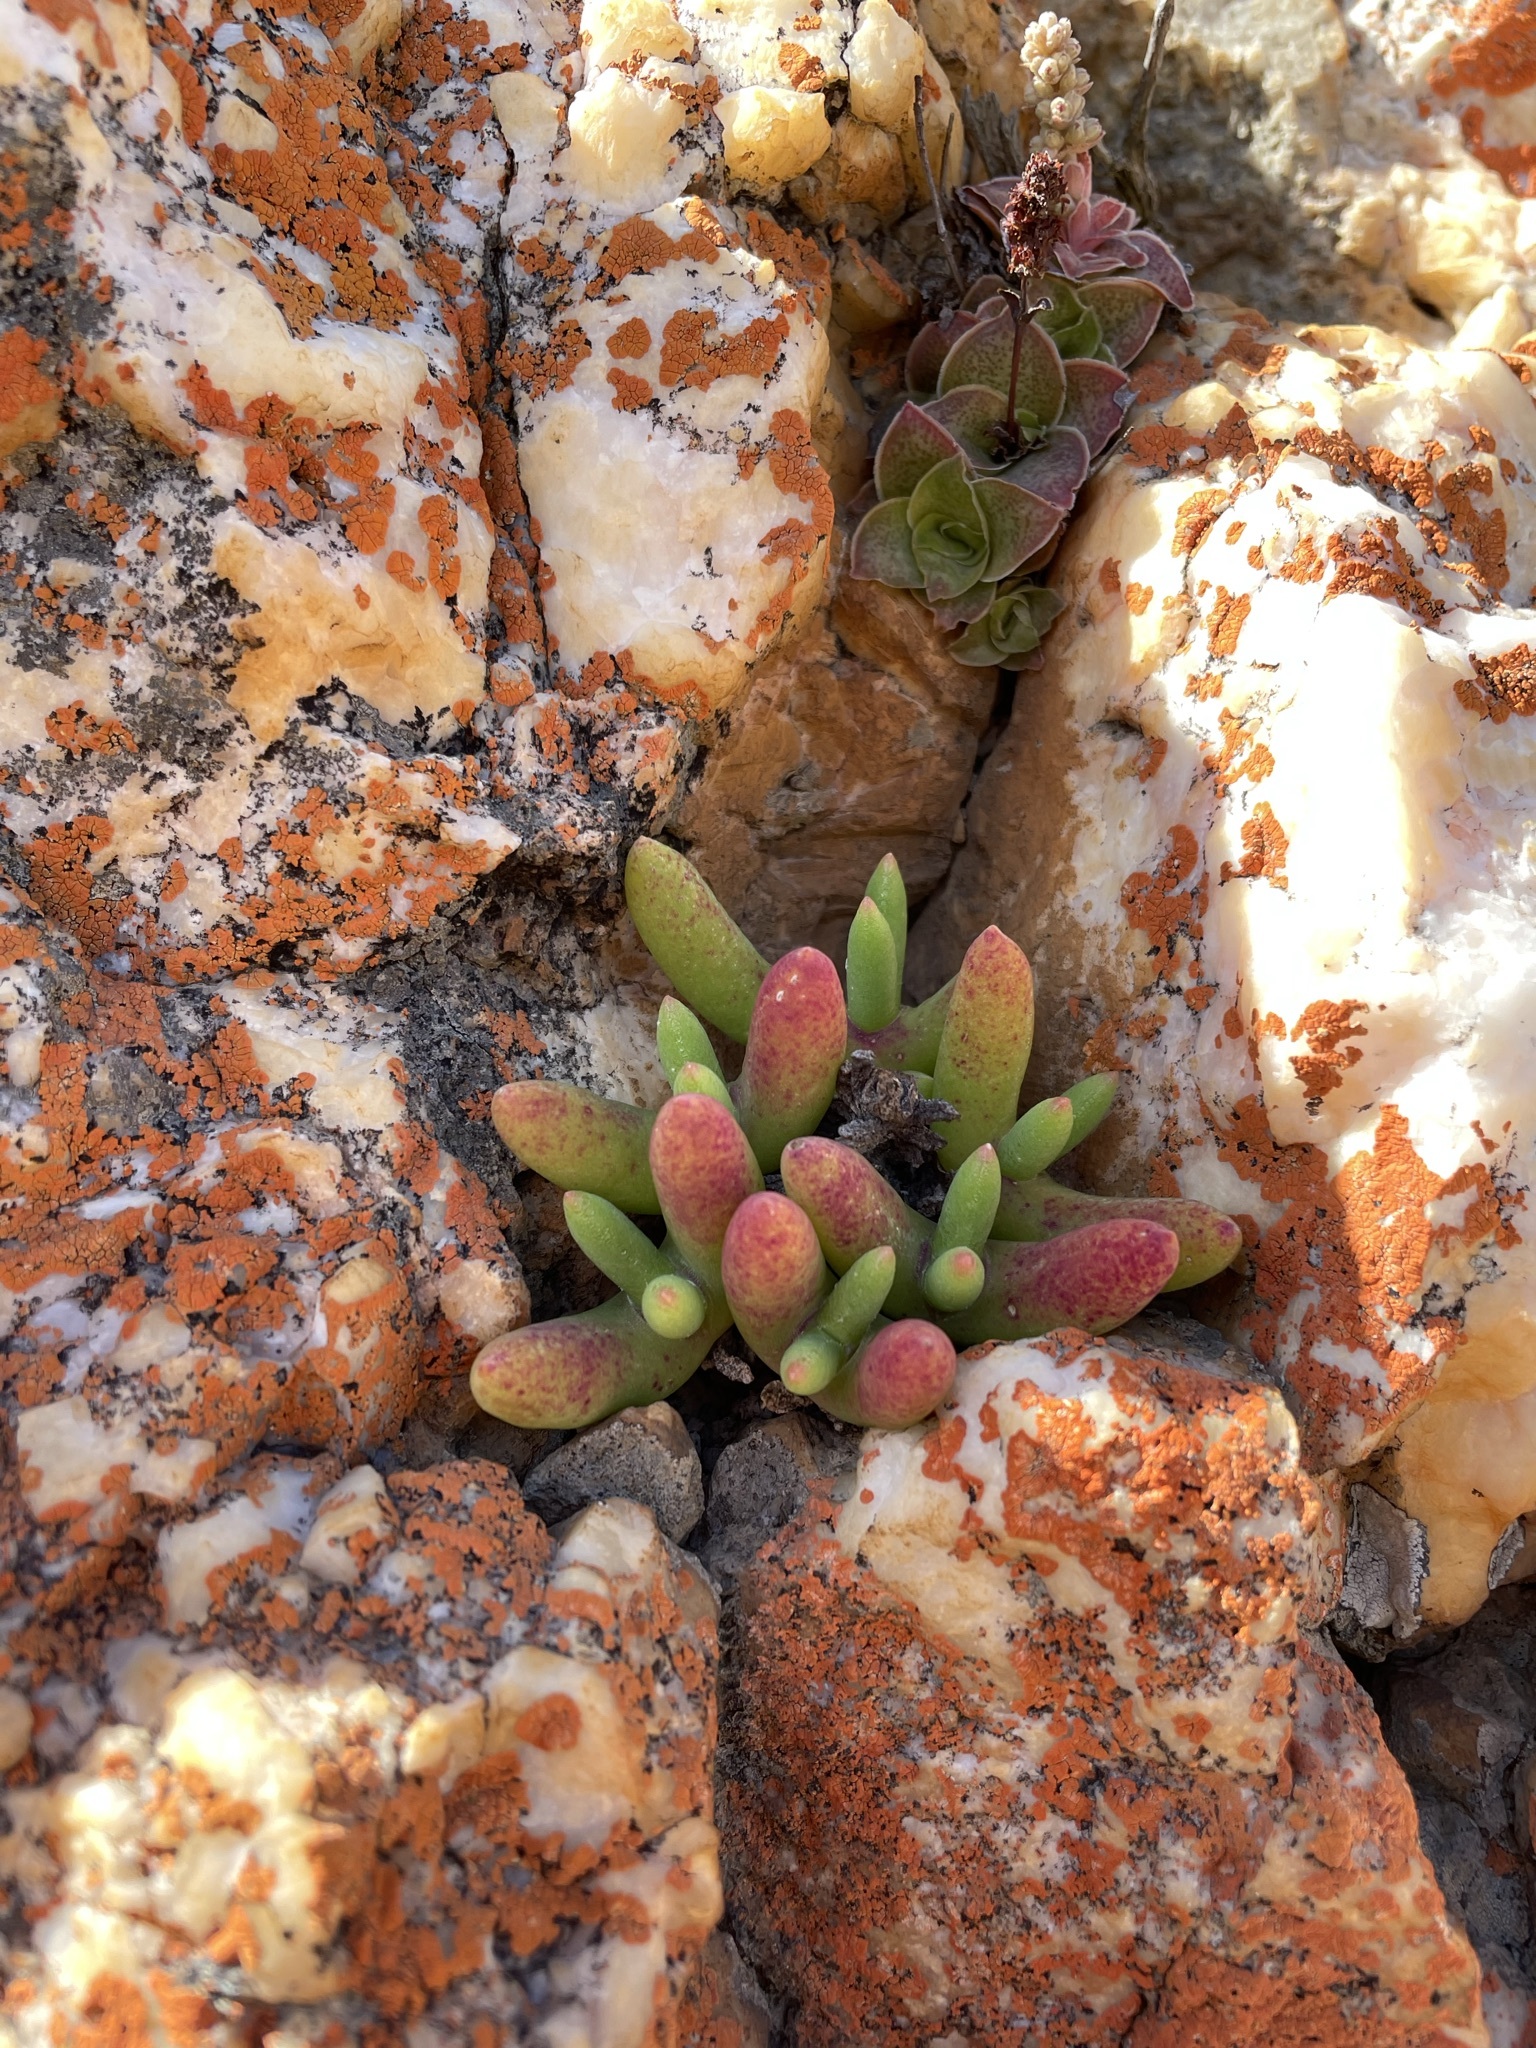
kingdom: Plantae
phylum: Tracheophyta
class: Magnoliopsida
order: Caryophyllales
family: Aizoaceae
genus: Jacobsenia
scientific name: Jacobsenia kolbei
